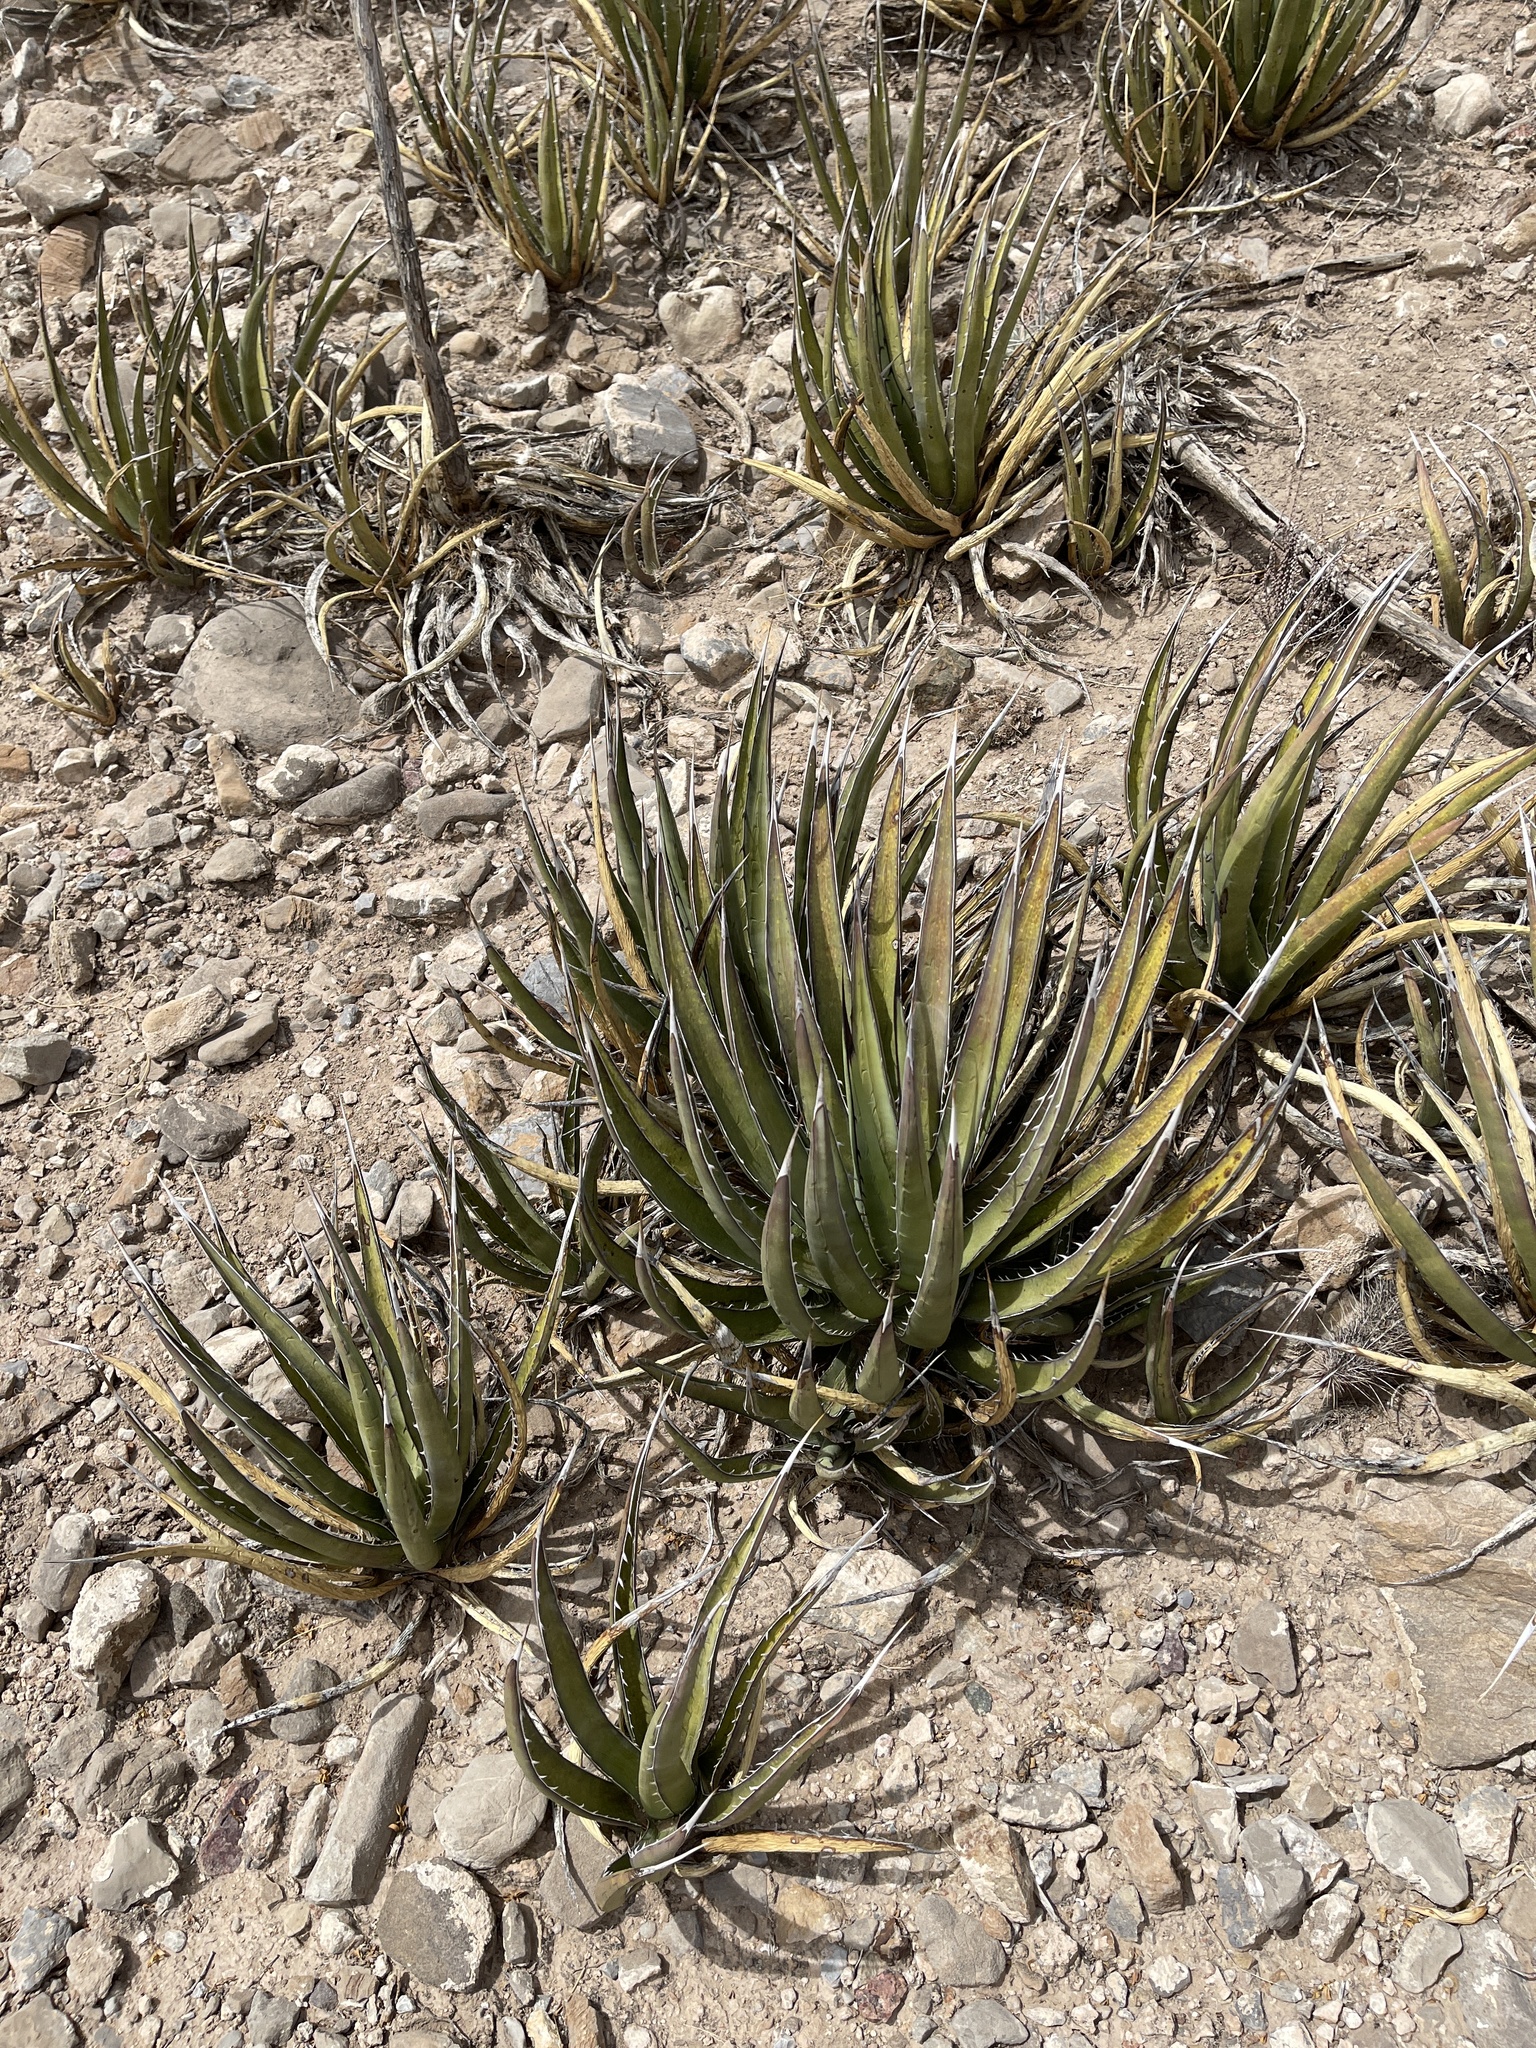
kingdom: Plantae
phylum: Tracheophyta
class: Liliopsida
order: Asparagales
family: Asparagaceae
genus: Agave
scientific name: Agave lechuguilla
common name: Lecheguilla agave
